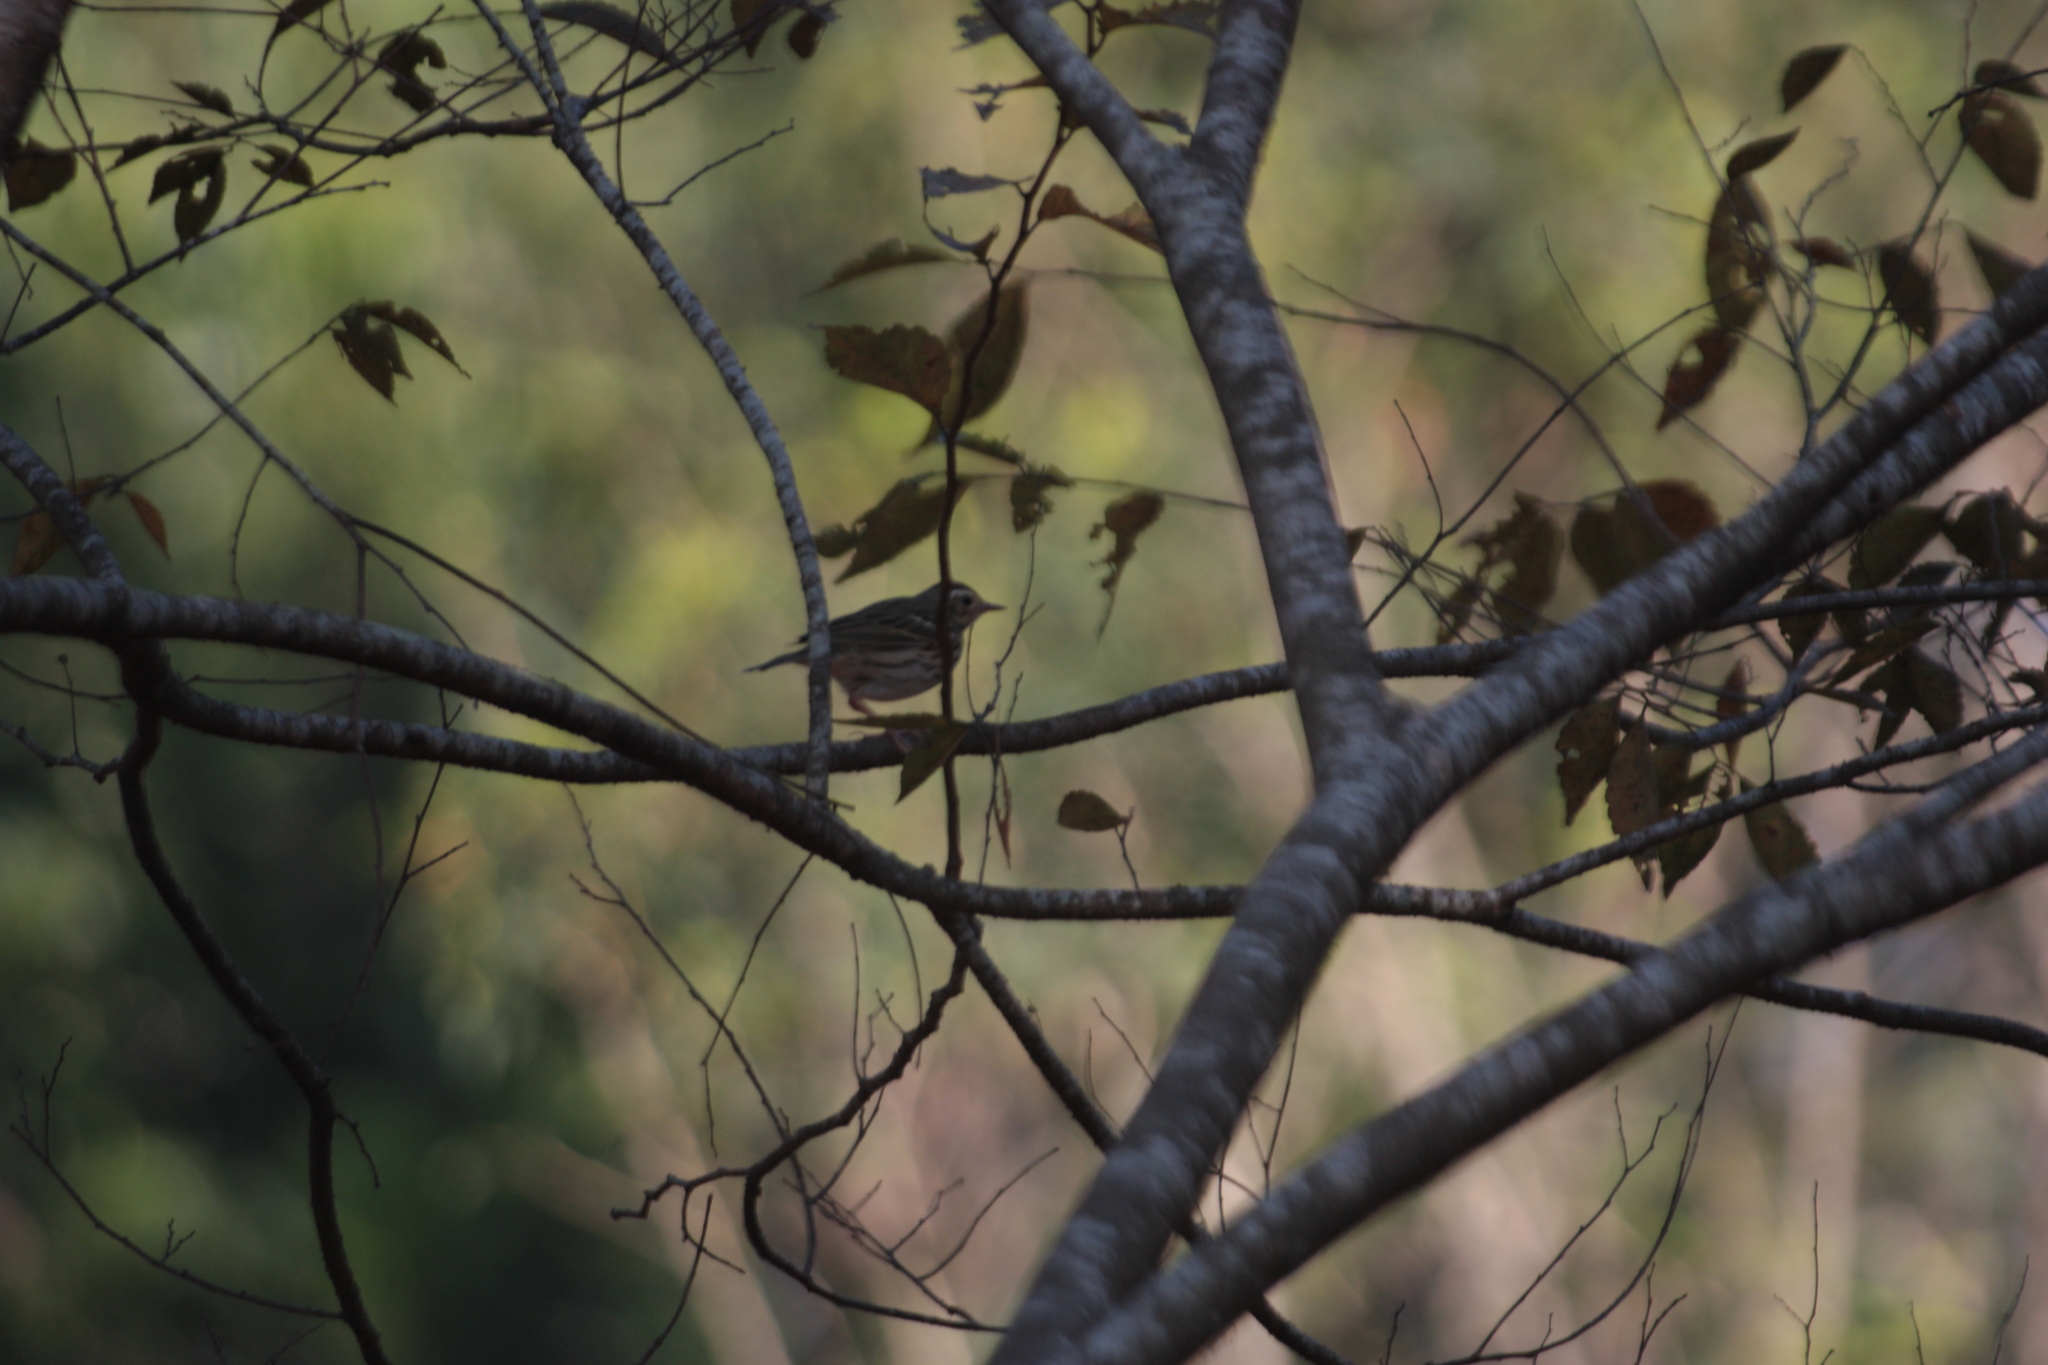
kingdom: Animalia
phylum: Chordata
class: Aves
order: Passeriformes
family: Motacillidae
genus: Anthus
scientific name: Anthus hodgsoni
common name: Olive-backed pipit
